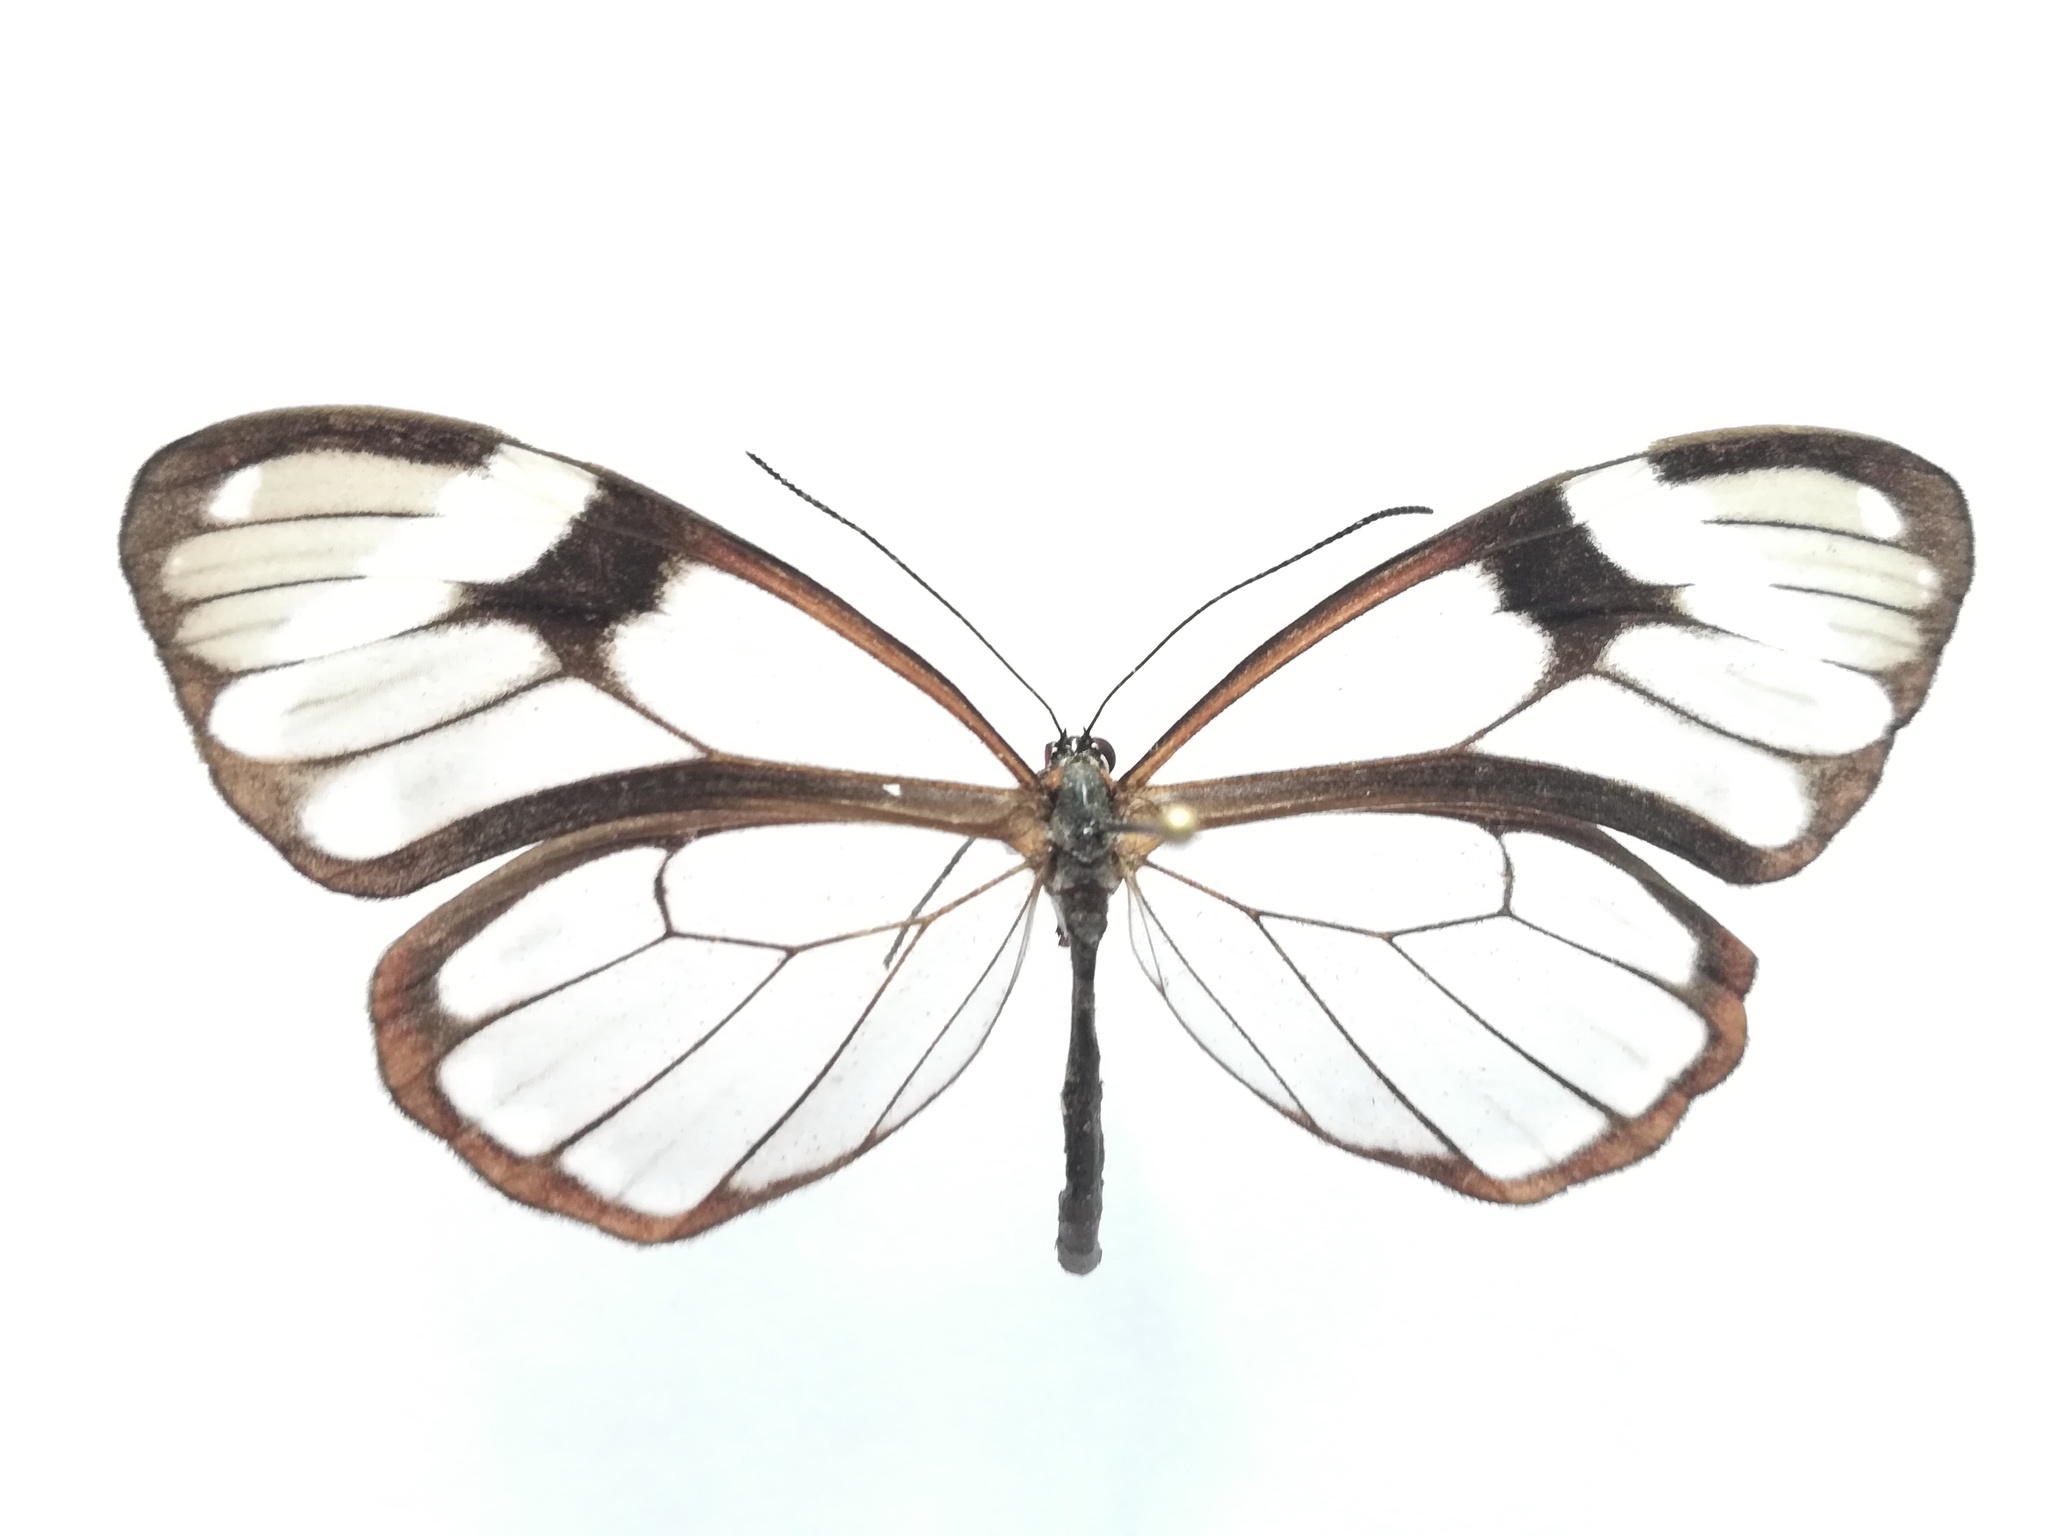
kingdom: Animalia
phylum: Arthropoda
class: Insecta
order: Lepidoptera
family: Nymphalidae
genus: Godyris
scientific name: Godyris nero
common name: Nero clearwing
